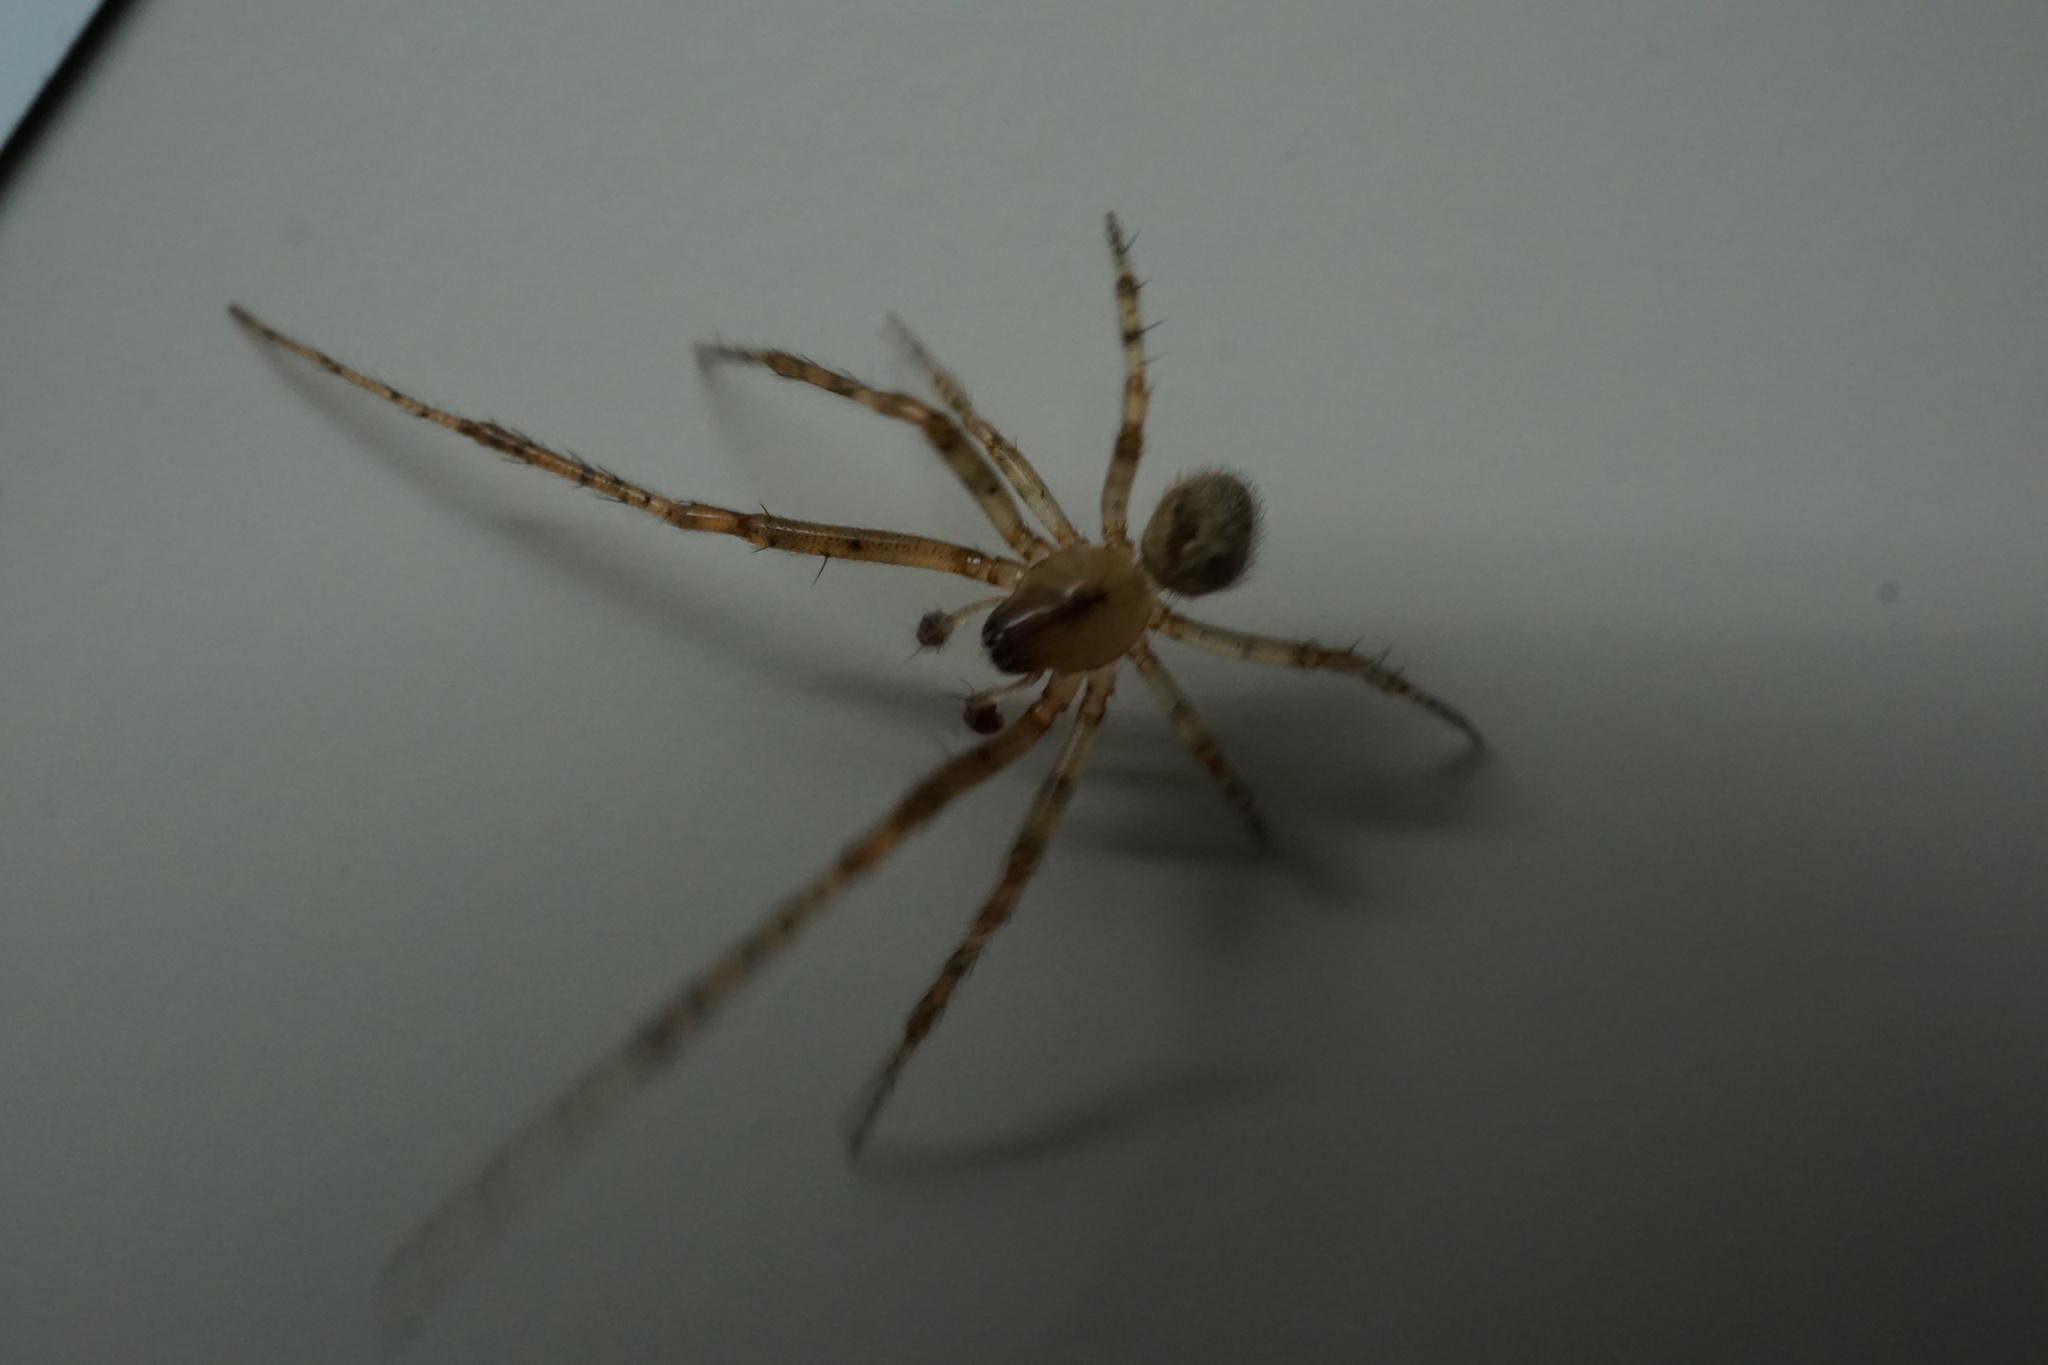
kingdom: Animalia
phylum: Arthropoda
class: Arachnida
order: Araneae
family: Araneidae
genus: Zygiella
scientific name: Zygiella x-notata
